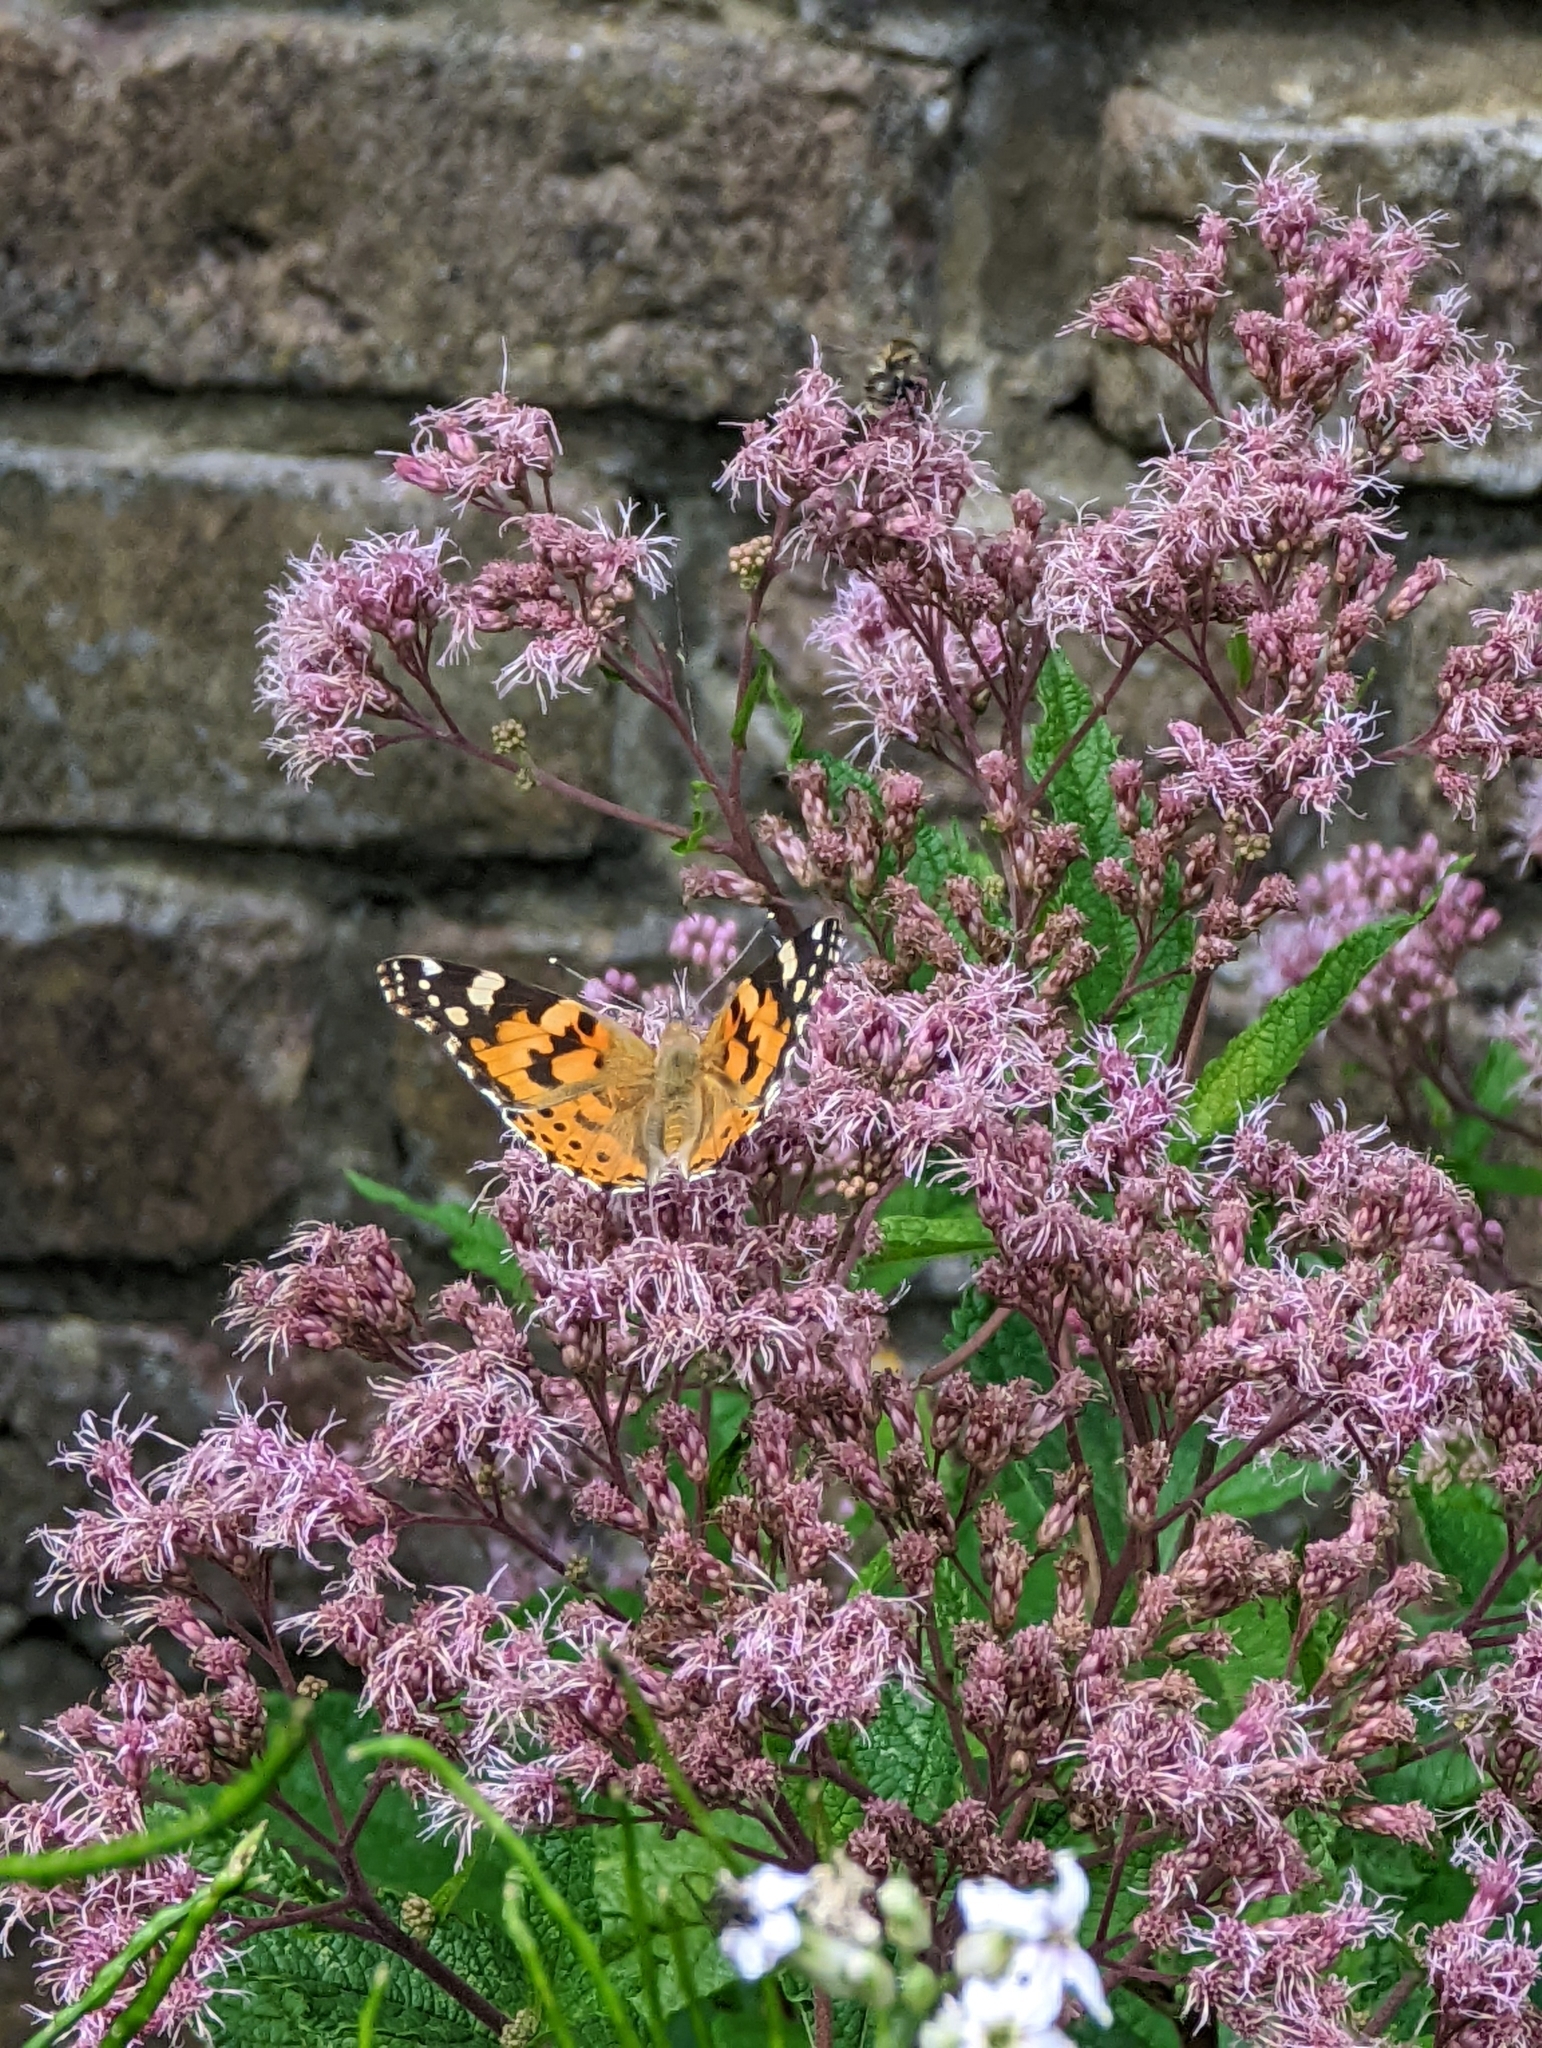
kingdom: Animalia
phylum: Arthropoda
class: Insecta
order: Lepidoptera
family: Nymphalidae
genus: Vanessa
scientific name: Vanessa cardui
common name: Painted lady
